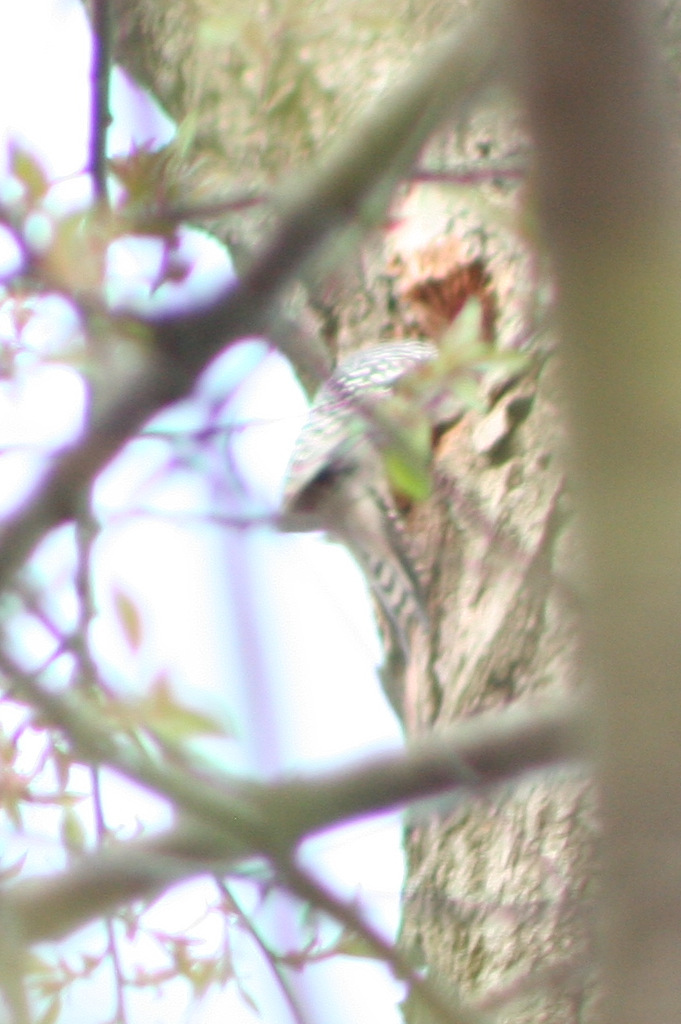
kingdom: Animalia
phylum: Chordata
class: Aves
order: Piciformes
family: Picidae
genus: Melanerpes
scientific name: Melanerpes carolinus
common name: Red-bellied woodpecker
